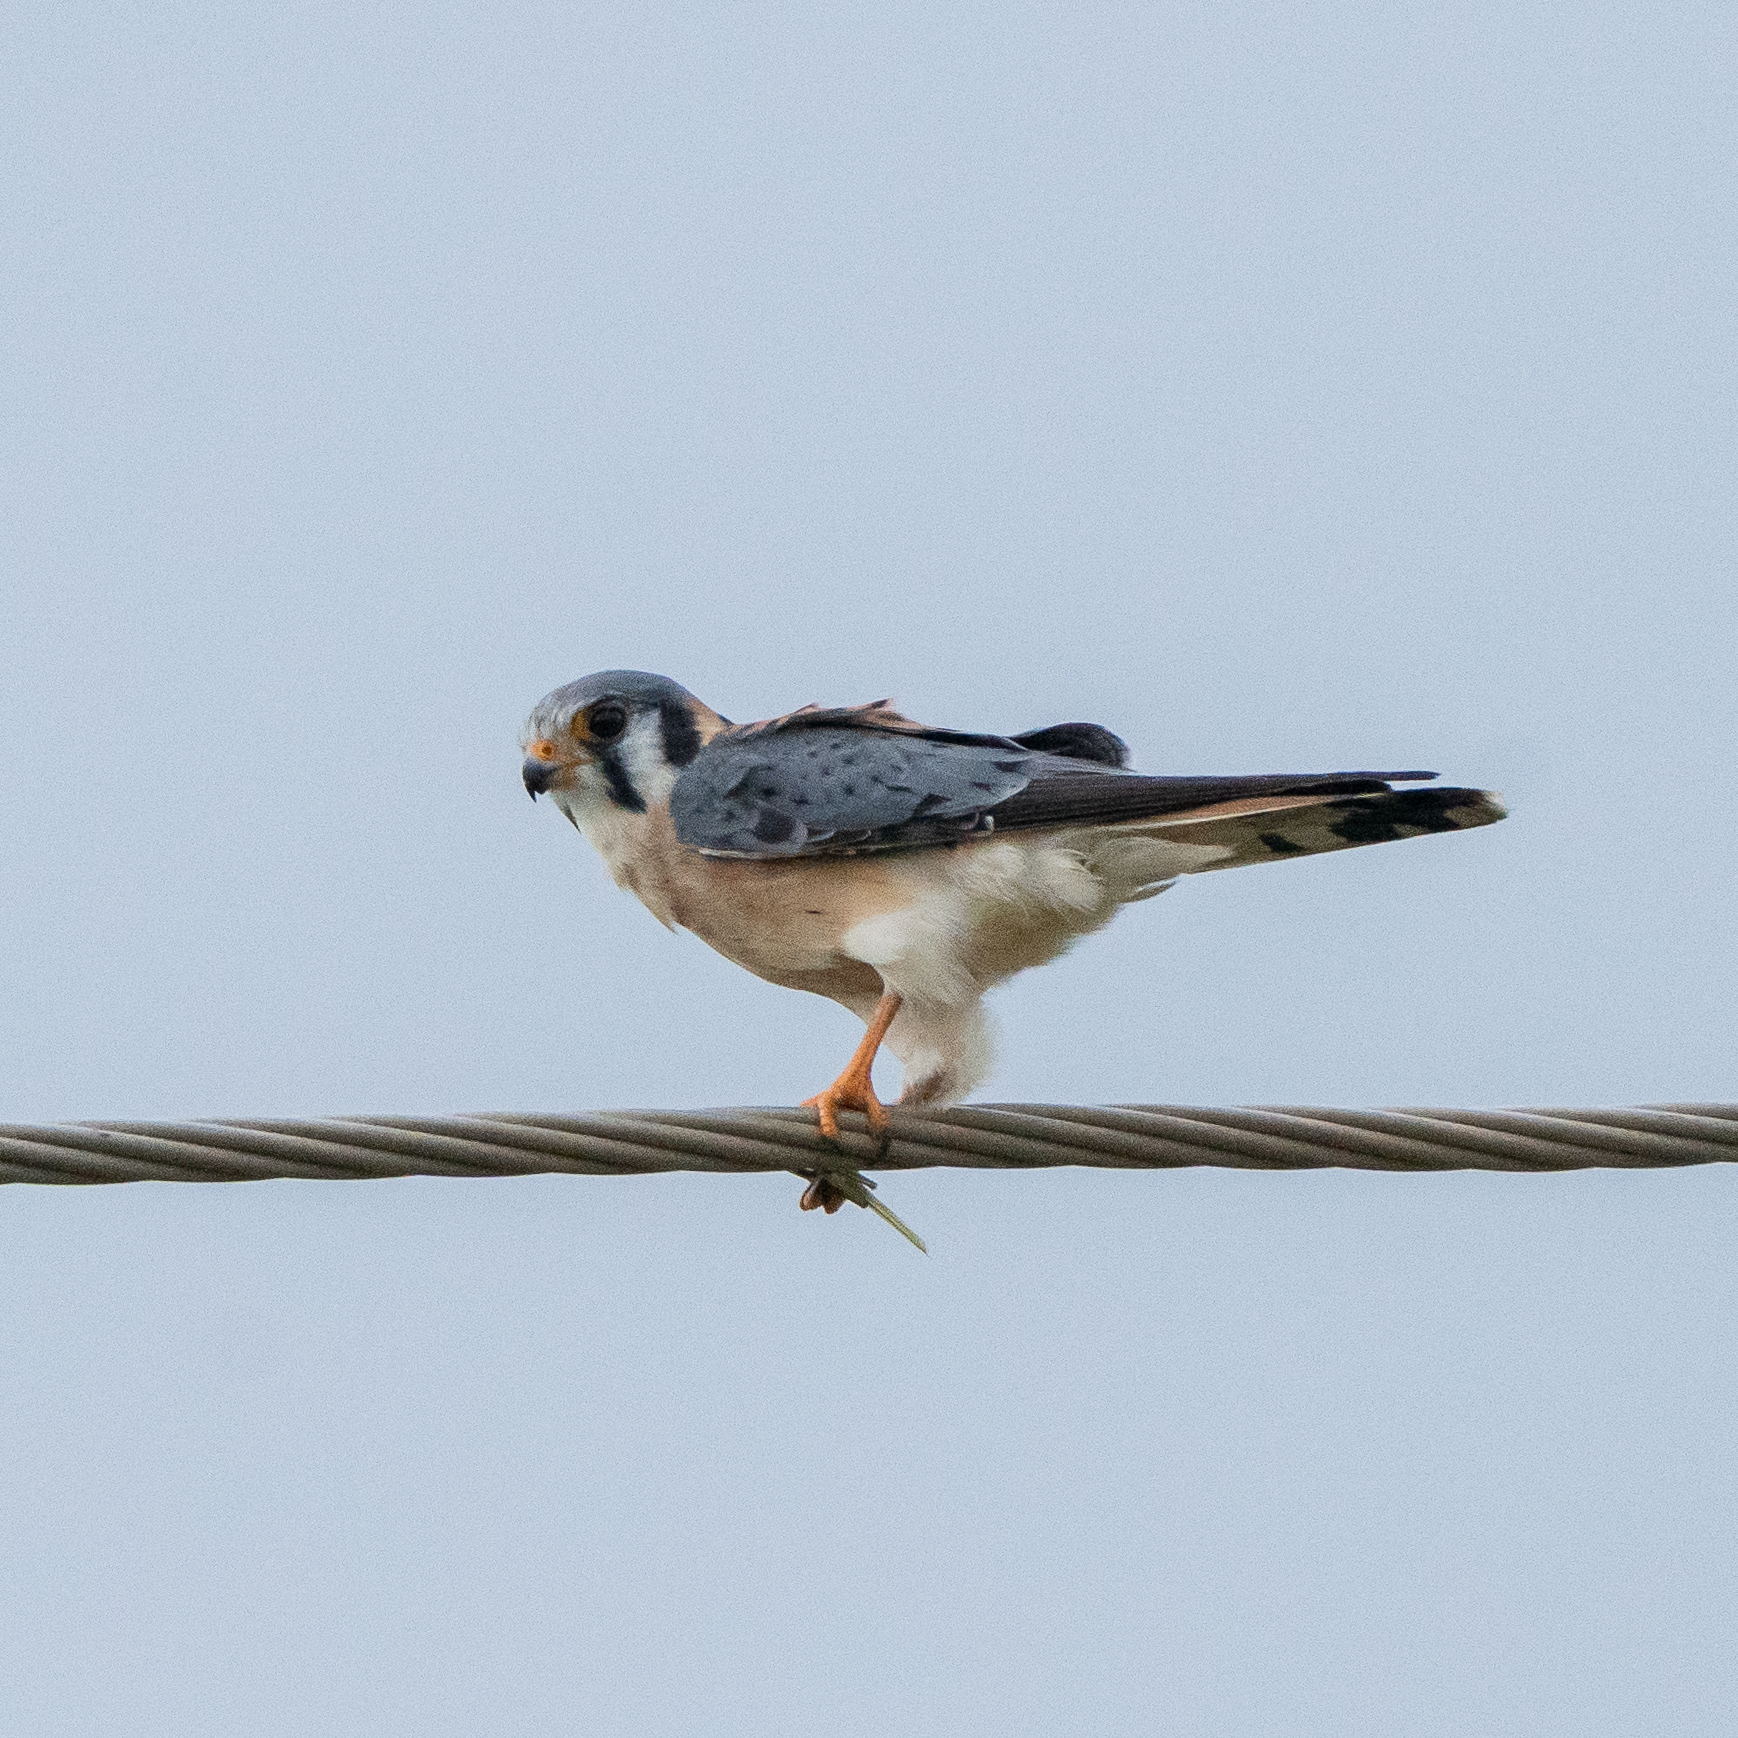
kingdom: Animalia
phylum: Chordata
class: Aves
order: Falconiformes
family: Falconidae
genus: Falco
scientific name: Falco sparverius
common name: American kestrel
